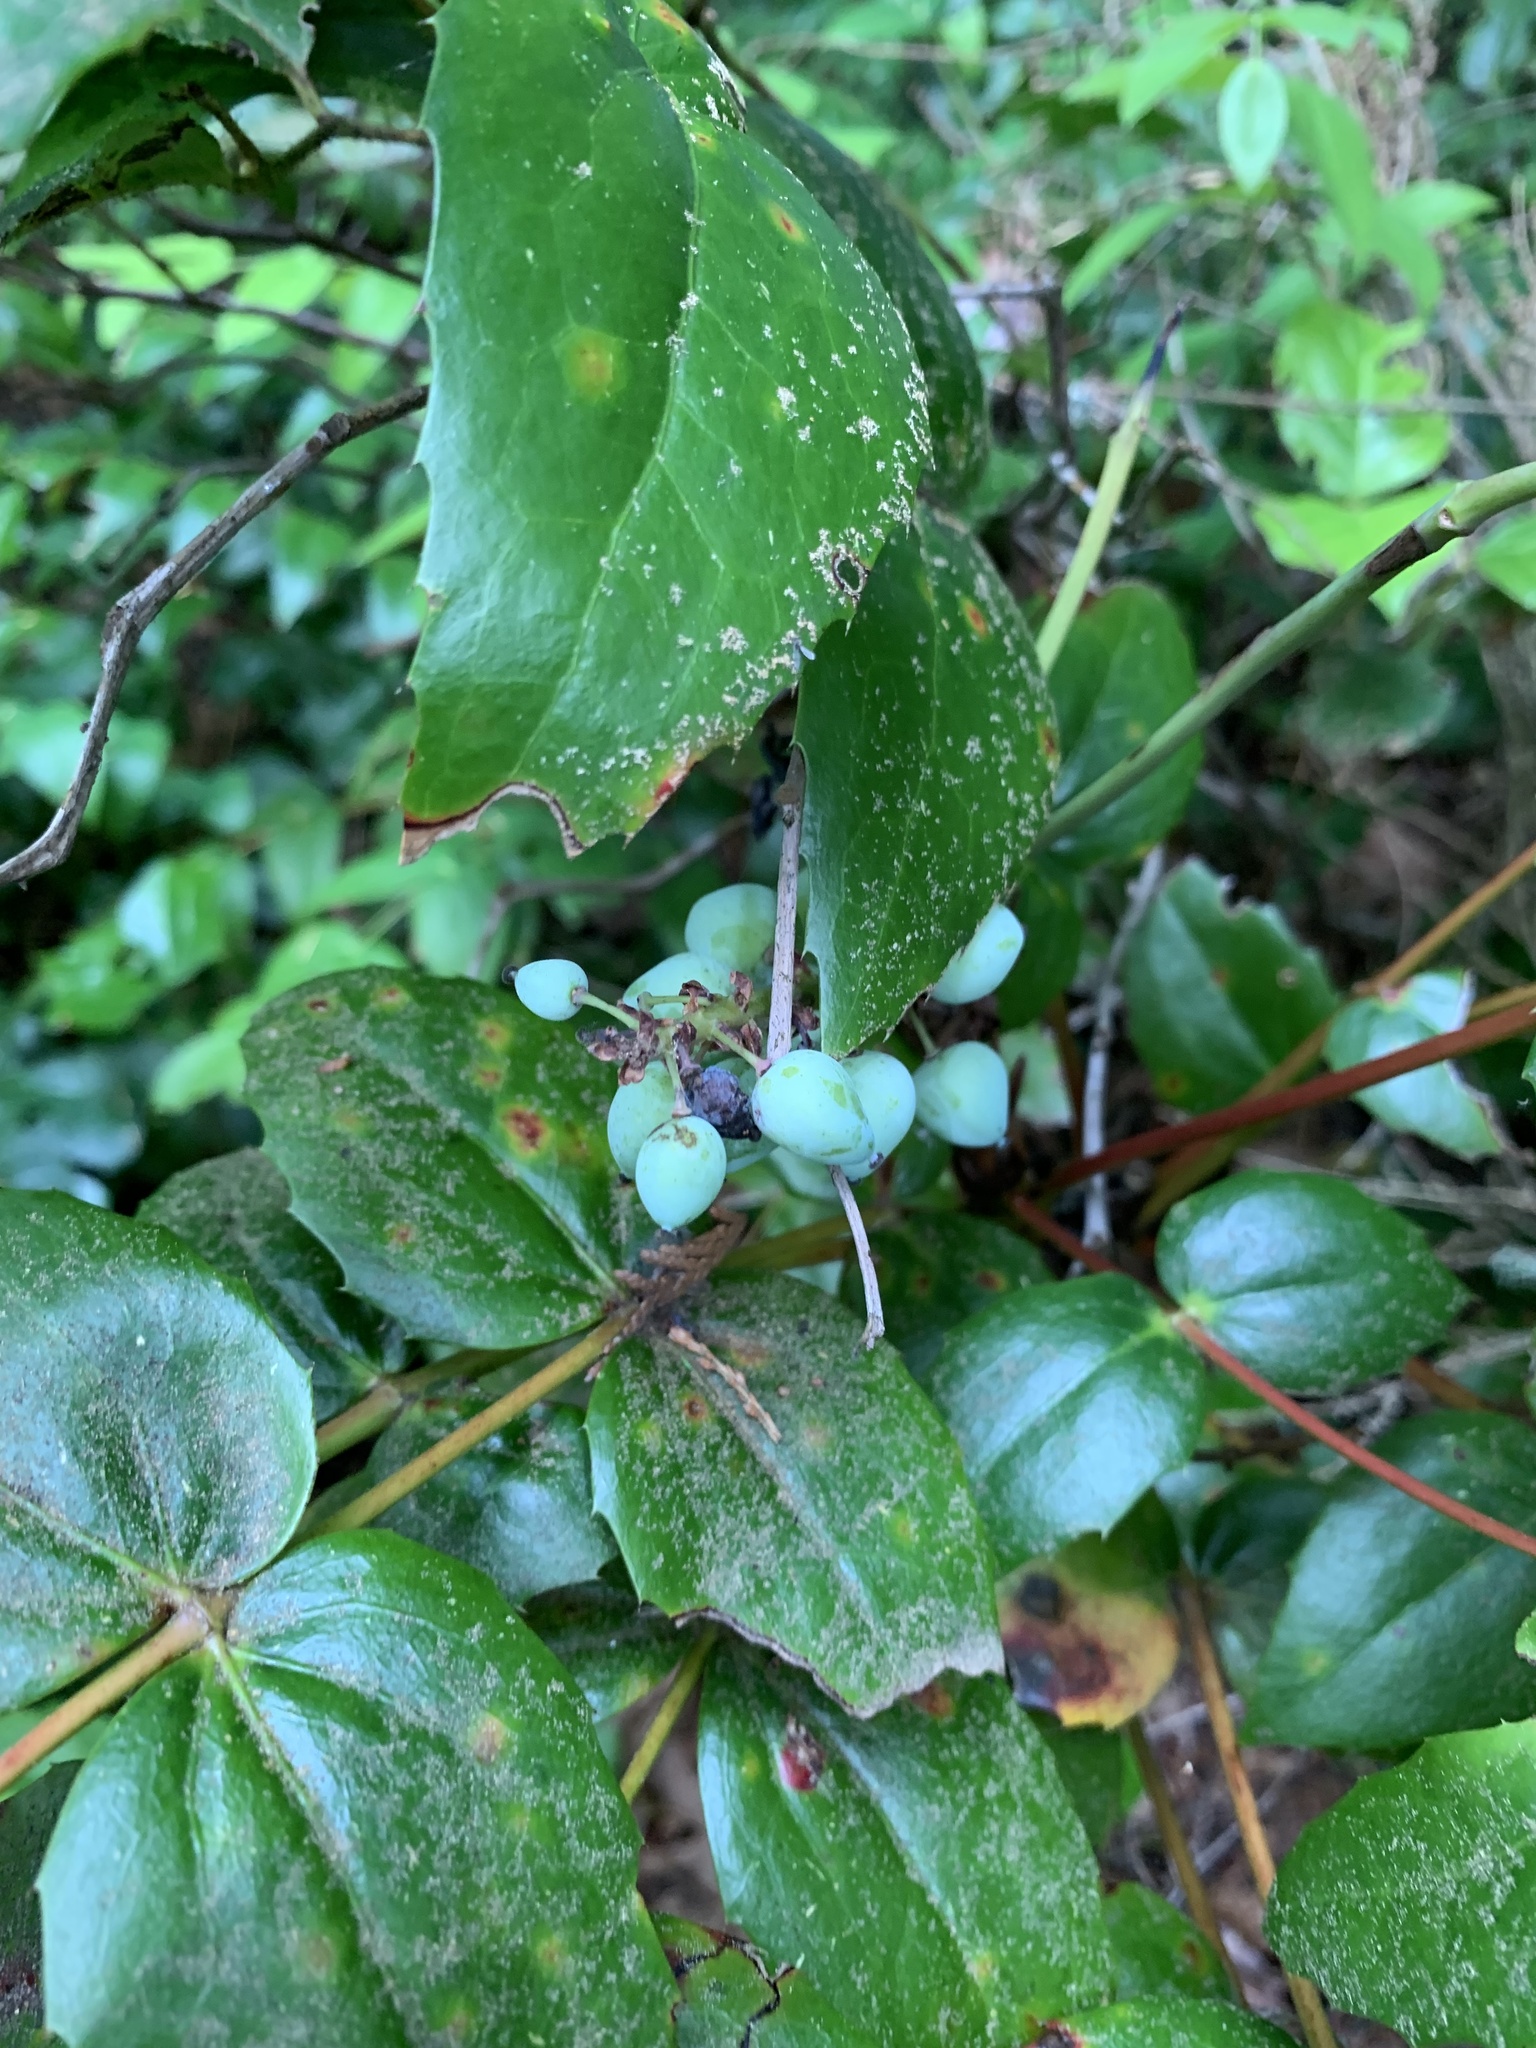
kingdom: Plantae
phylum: Tracheophyta
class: Magnoliopsida
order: Ranunculales
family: Berberidaceae
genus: Mahonia
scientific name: Mahonia nervosa
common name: Cascade oregon-grape
